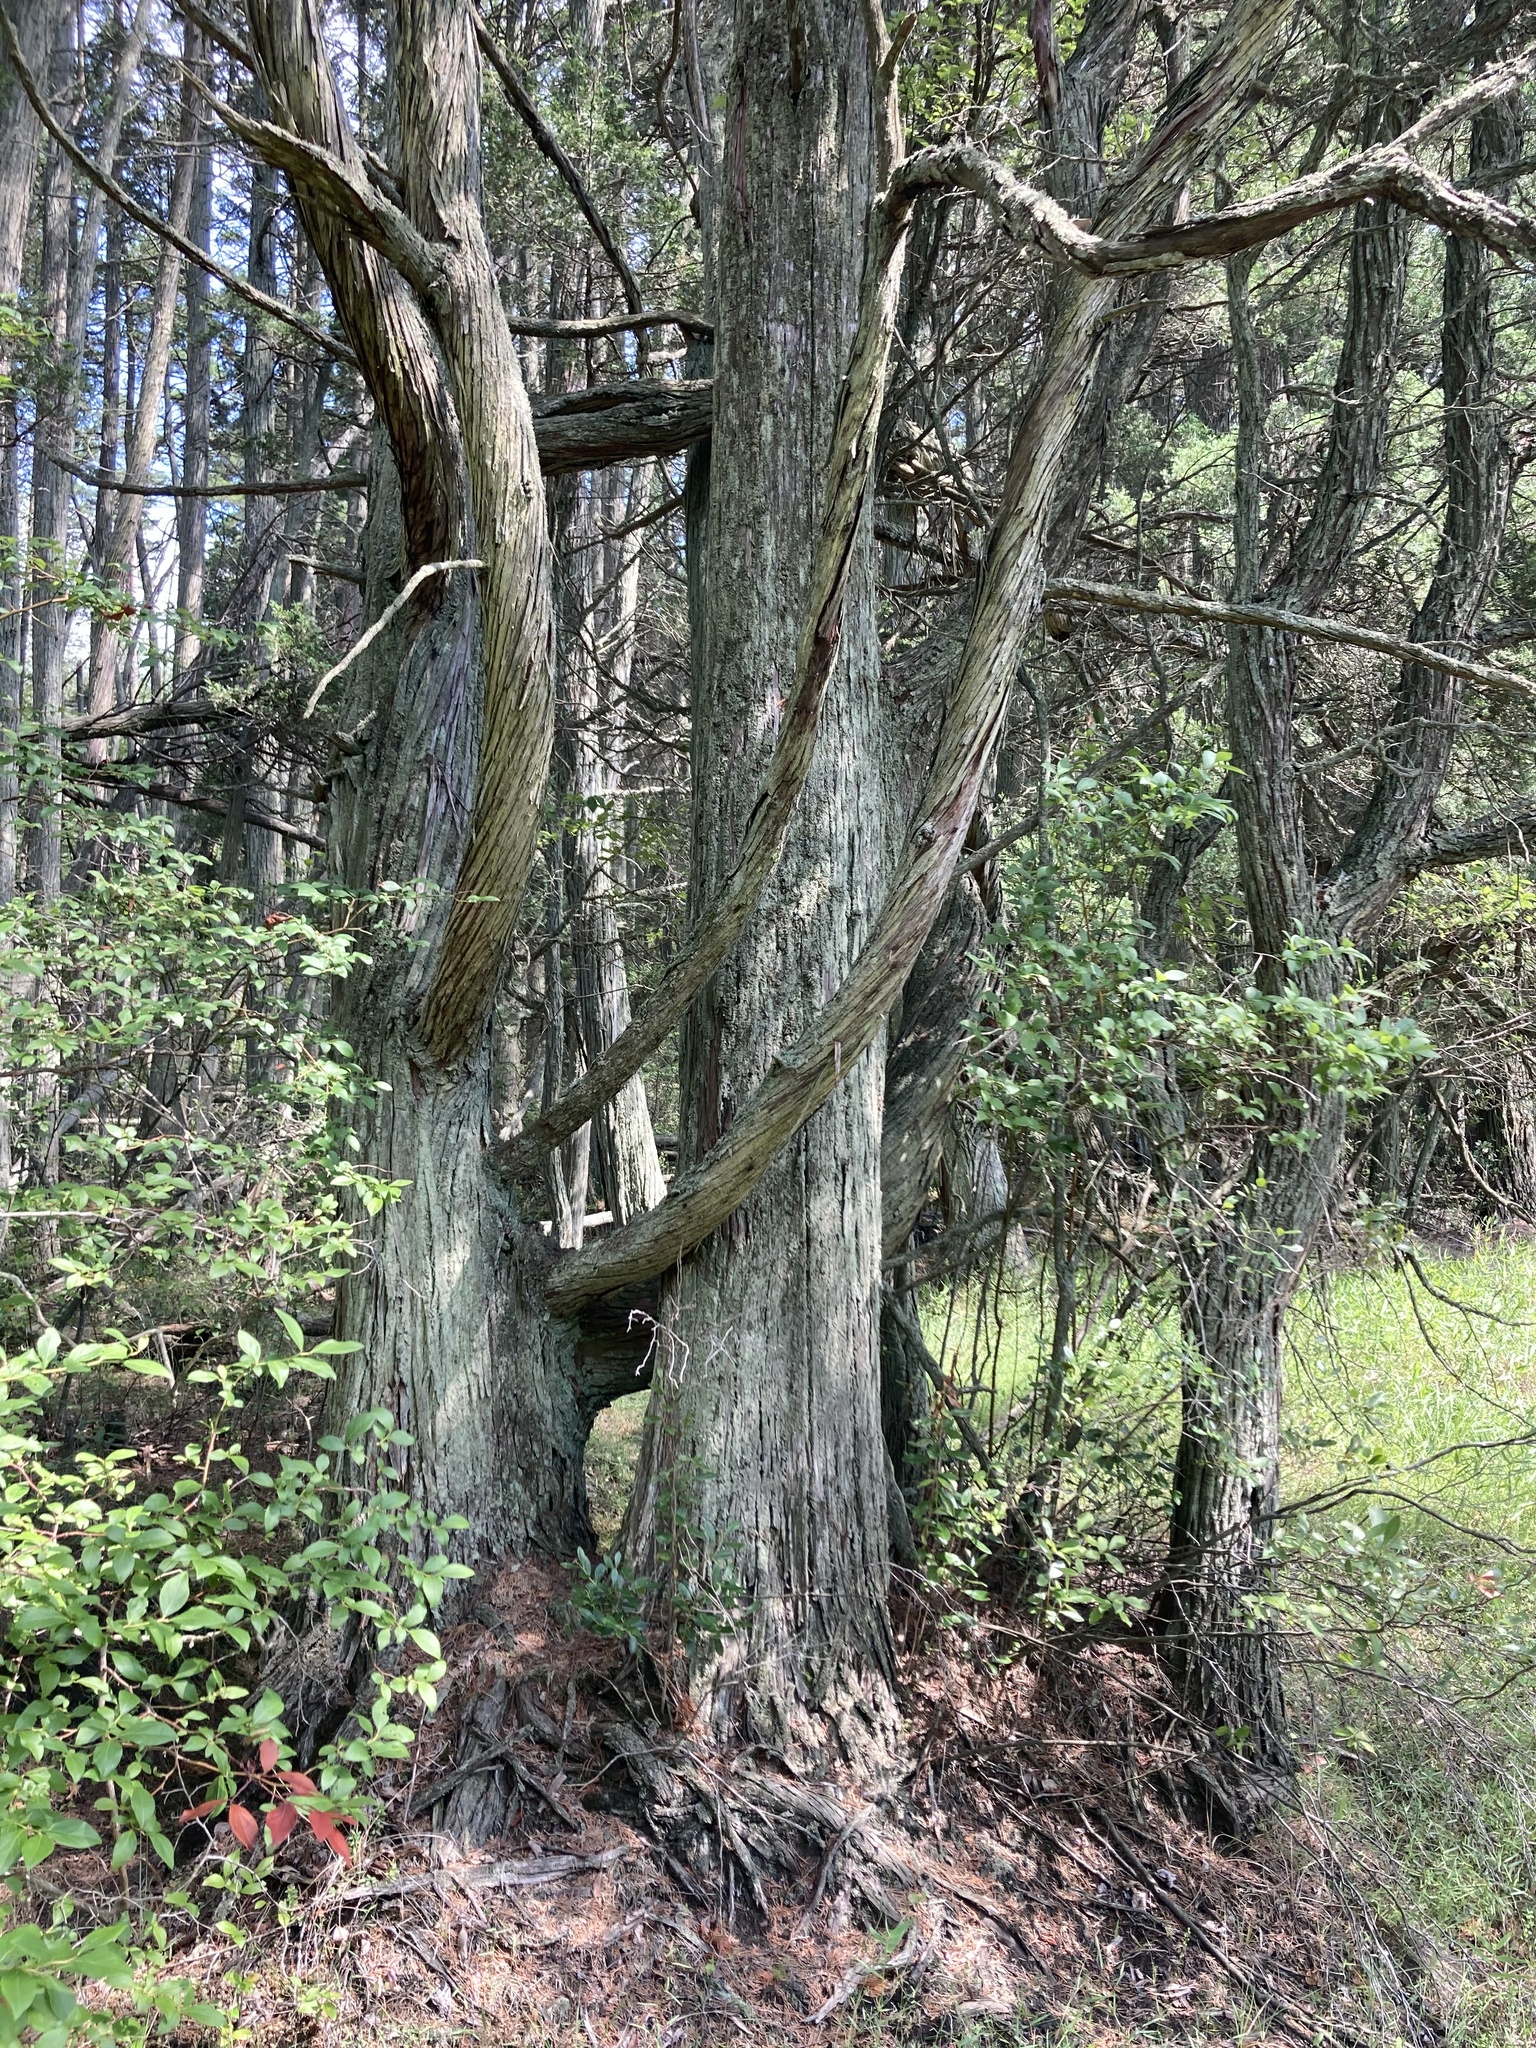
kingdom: Plantae
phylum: Tracheophyta
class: Pinopsida
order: Pinales
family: Cupressaceae
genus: Chamaecyparis
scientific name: Chamaecyparis thyoides
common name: Atlantic white cedar
